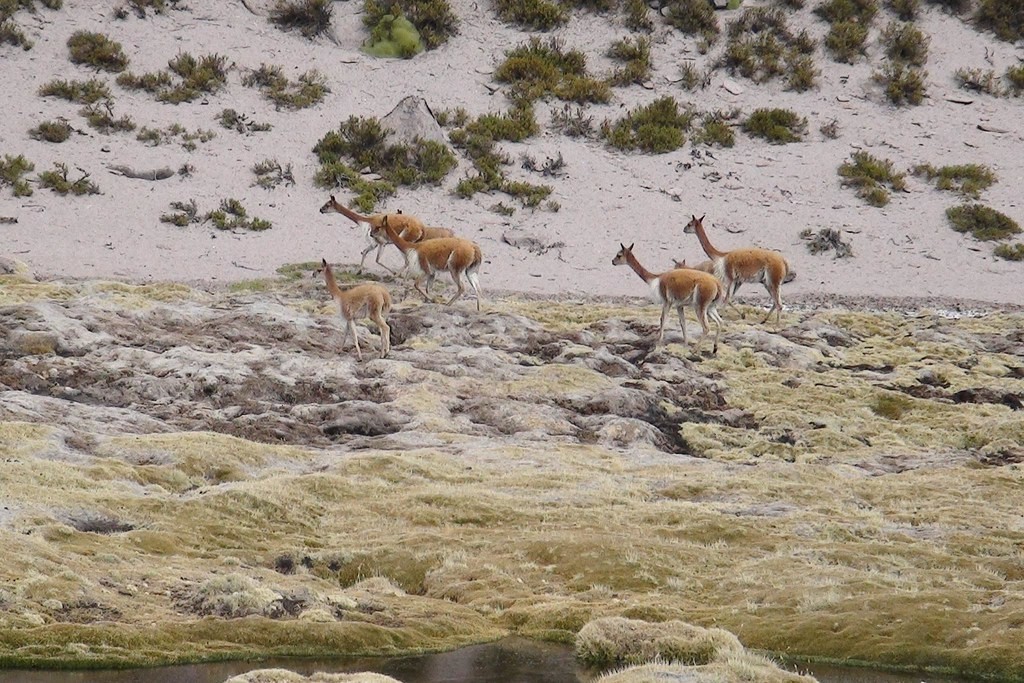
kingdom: Animalia
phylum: Chordata
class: Mammalia
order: Artiodactyla
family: Camelidae
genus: Vicugna
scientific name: Vicugna vicugna
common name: Vicugna
